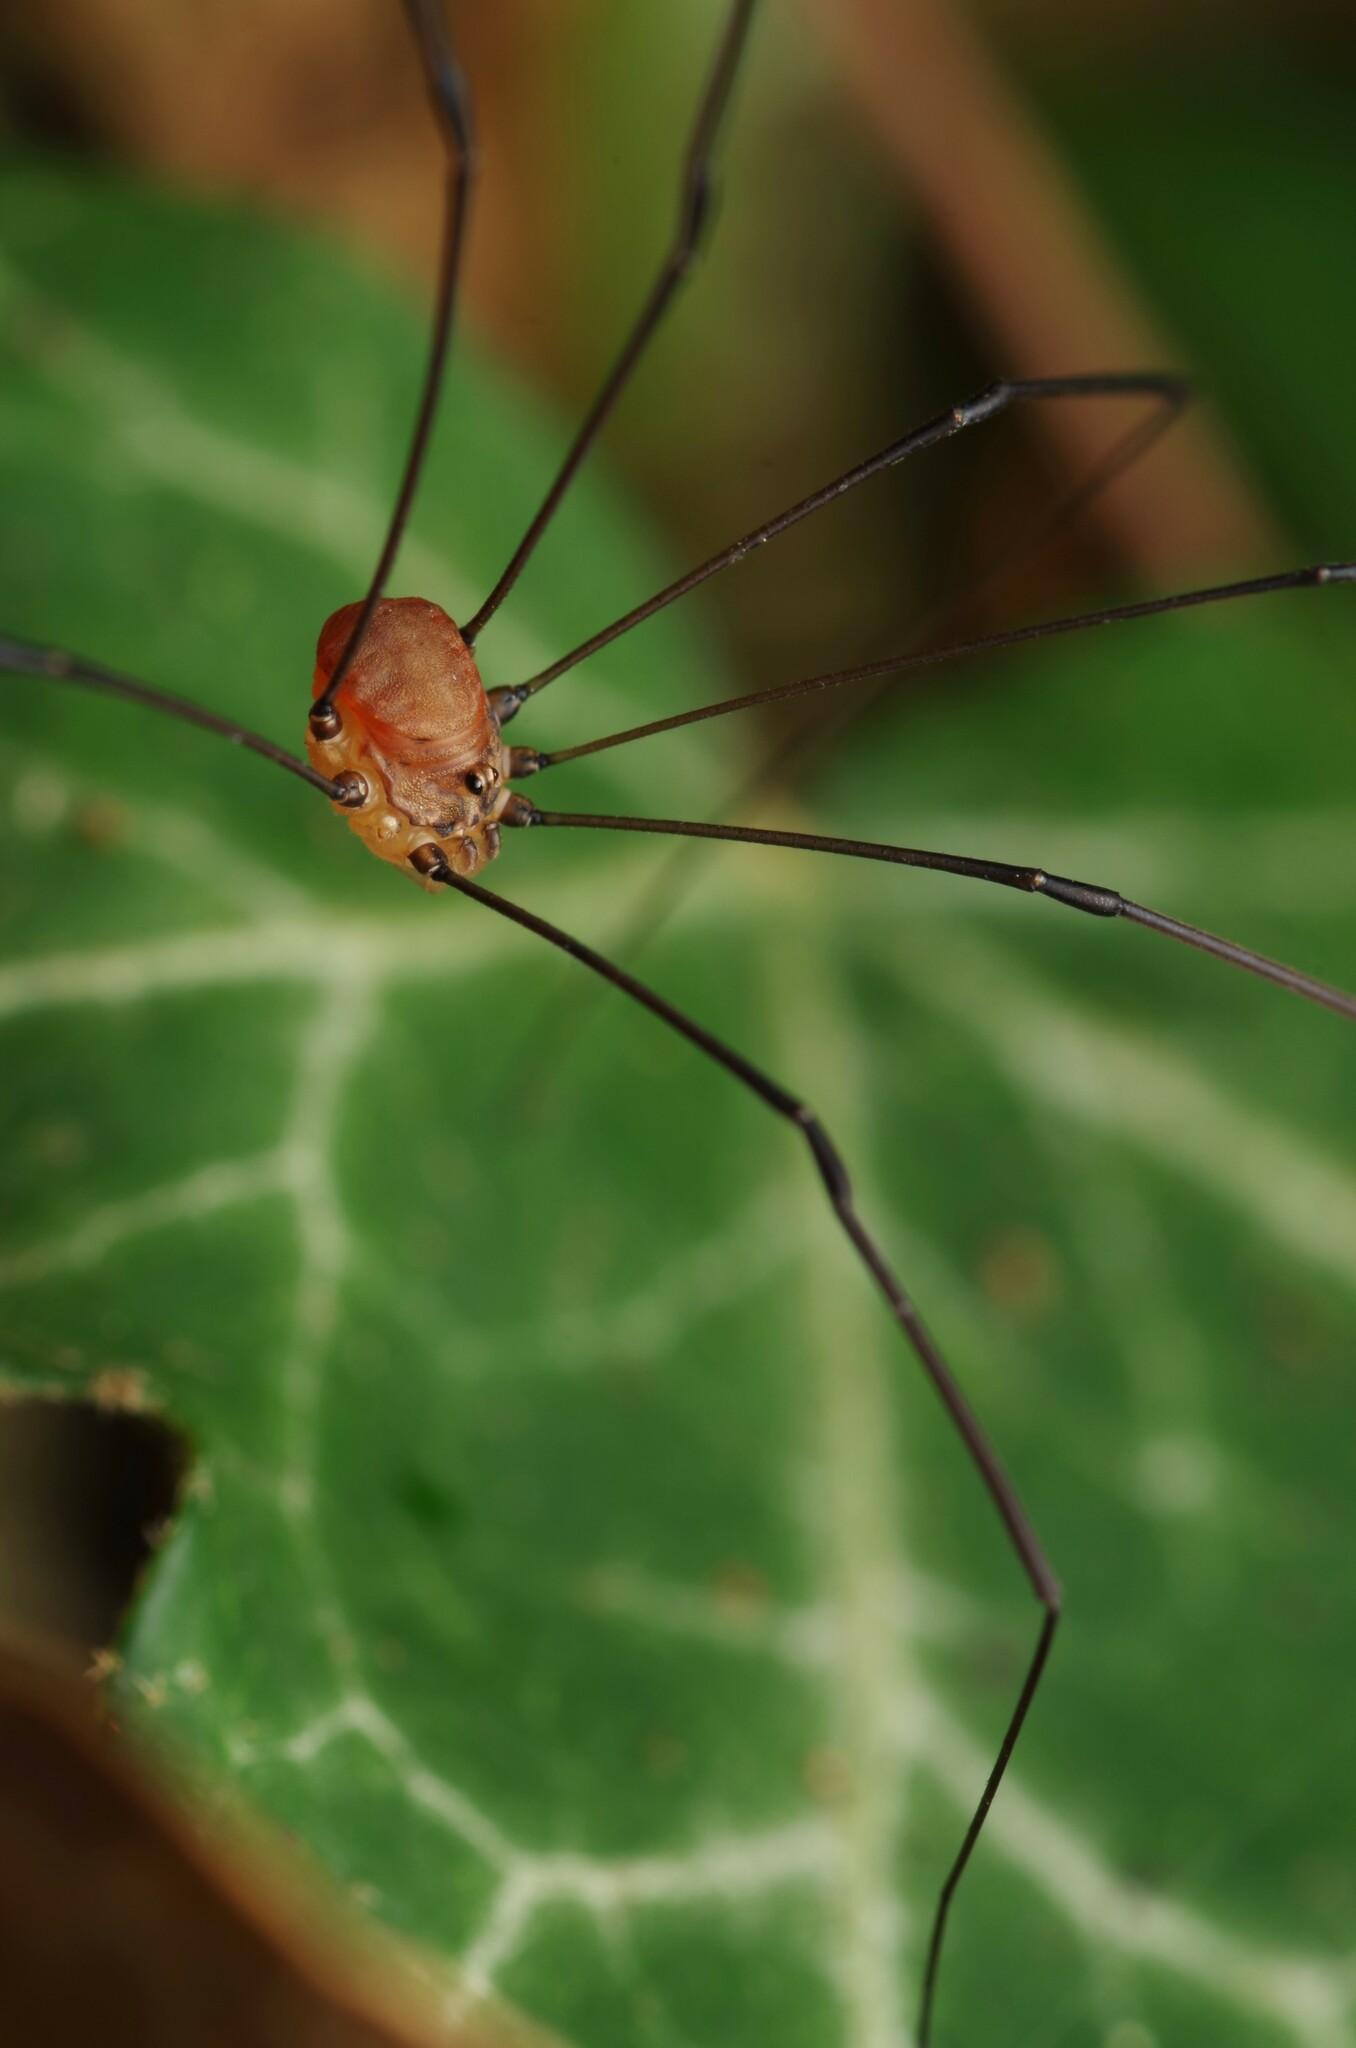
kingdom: Animalia
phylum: Arthropoda
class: Arachnida
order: Opiliones
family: Sclerosomatidae
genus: Leiobunum
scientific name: Leiobunum blackwalli
